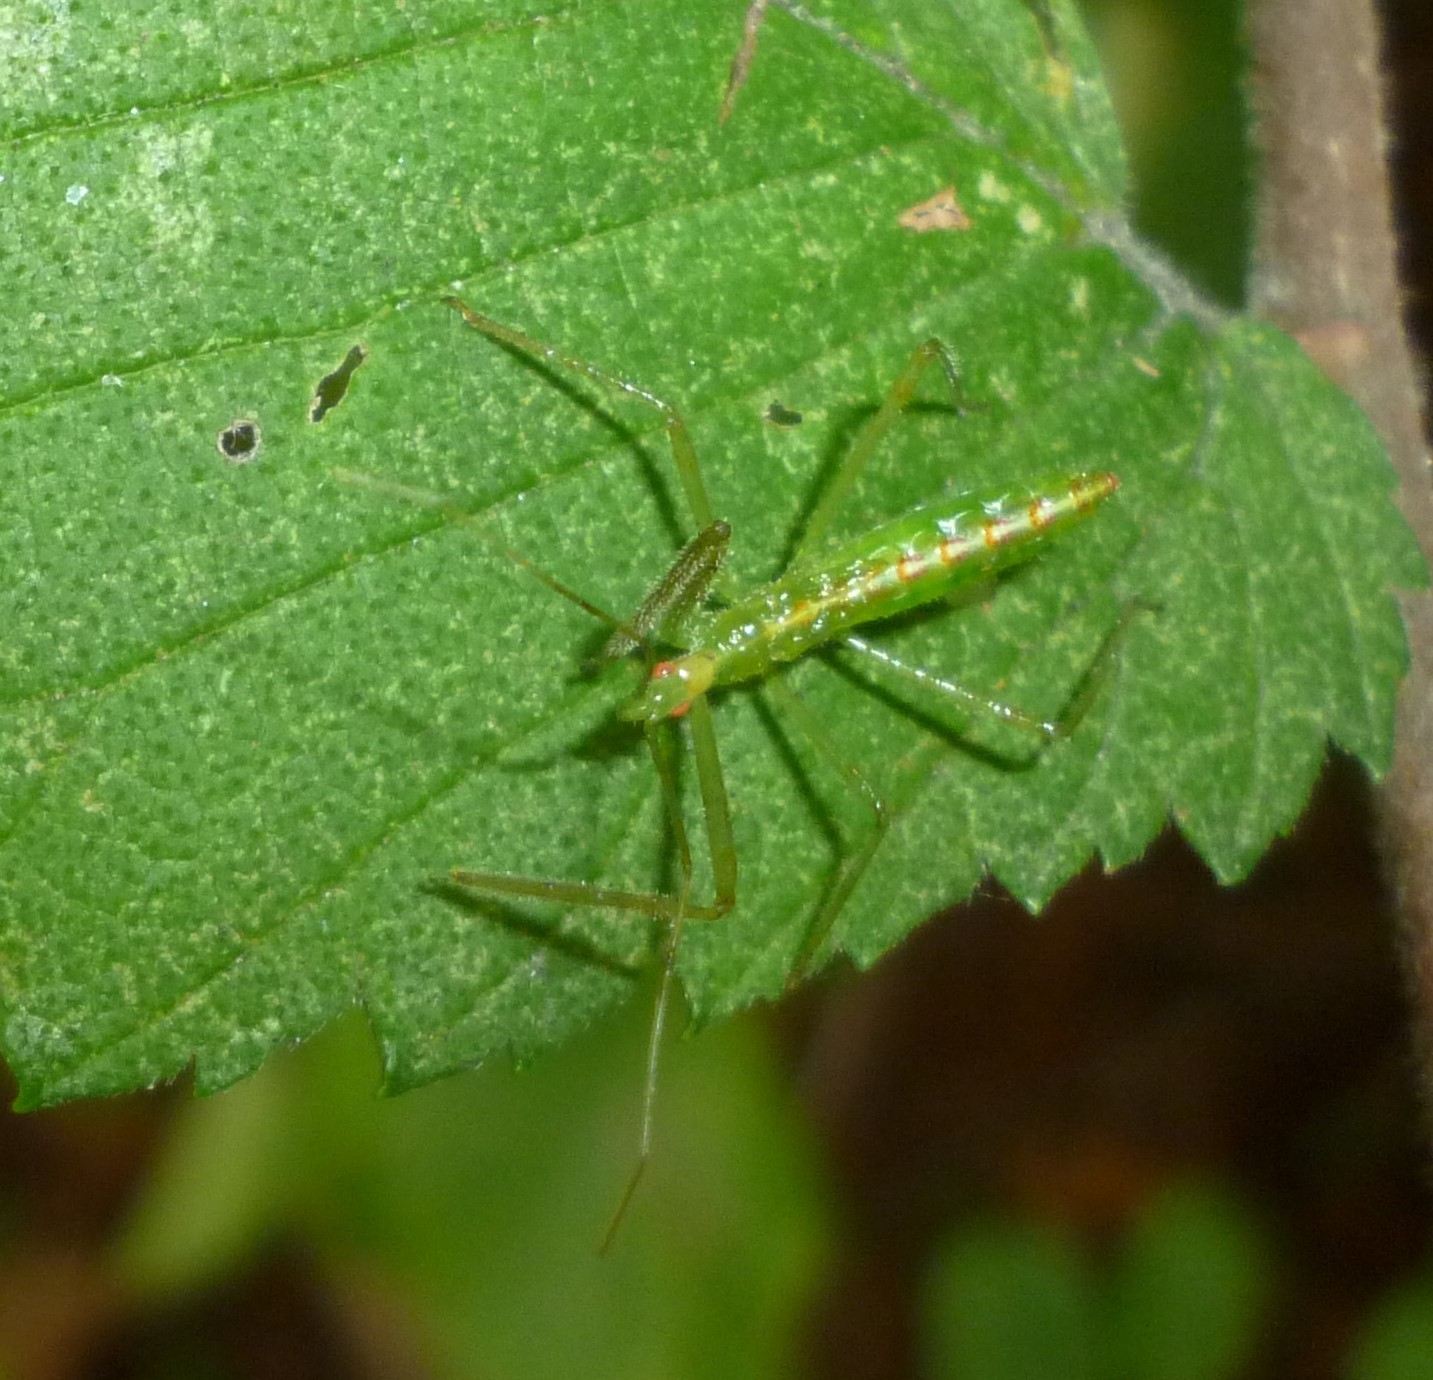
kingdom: Animalia
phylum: Arthropoda
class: Insecta
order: Hemiptera
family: Reduviidae
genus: Zelus
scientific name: Zelus luridus
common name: Pale green assassin bug
